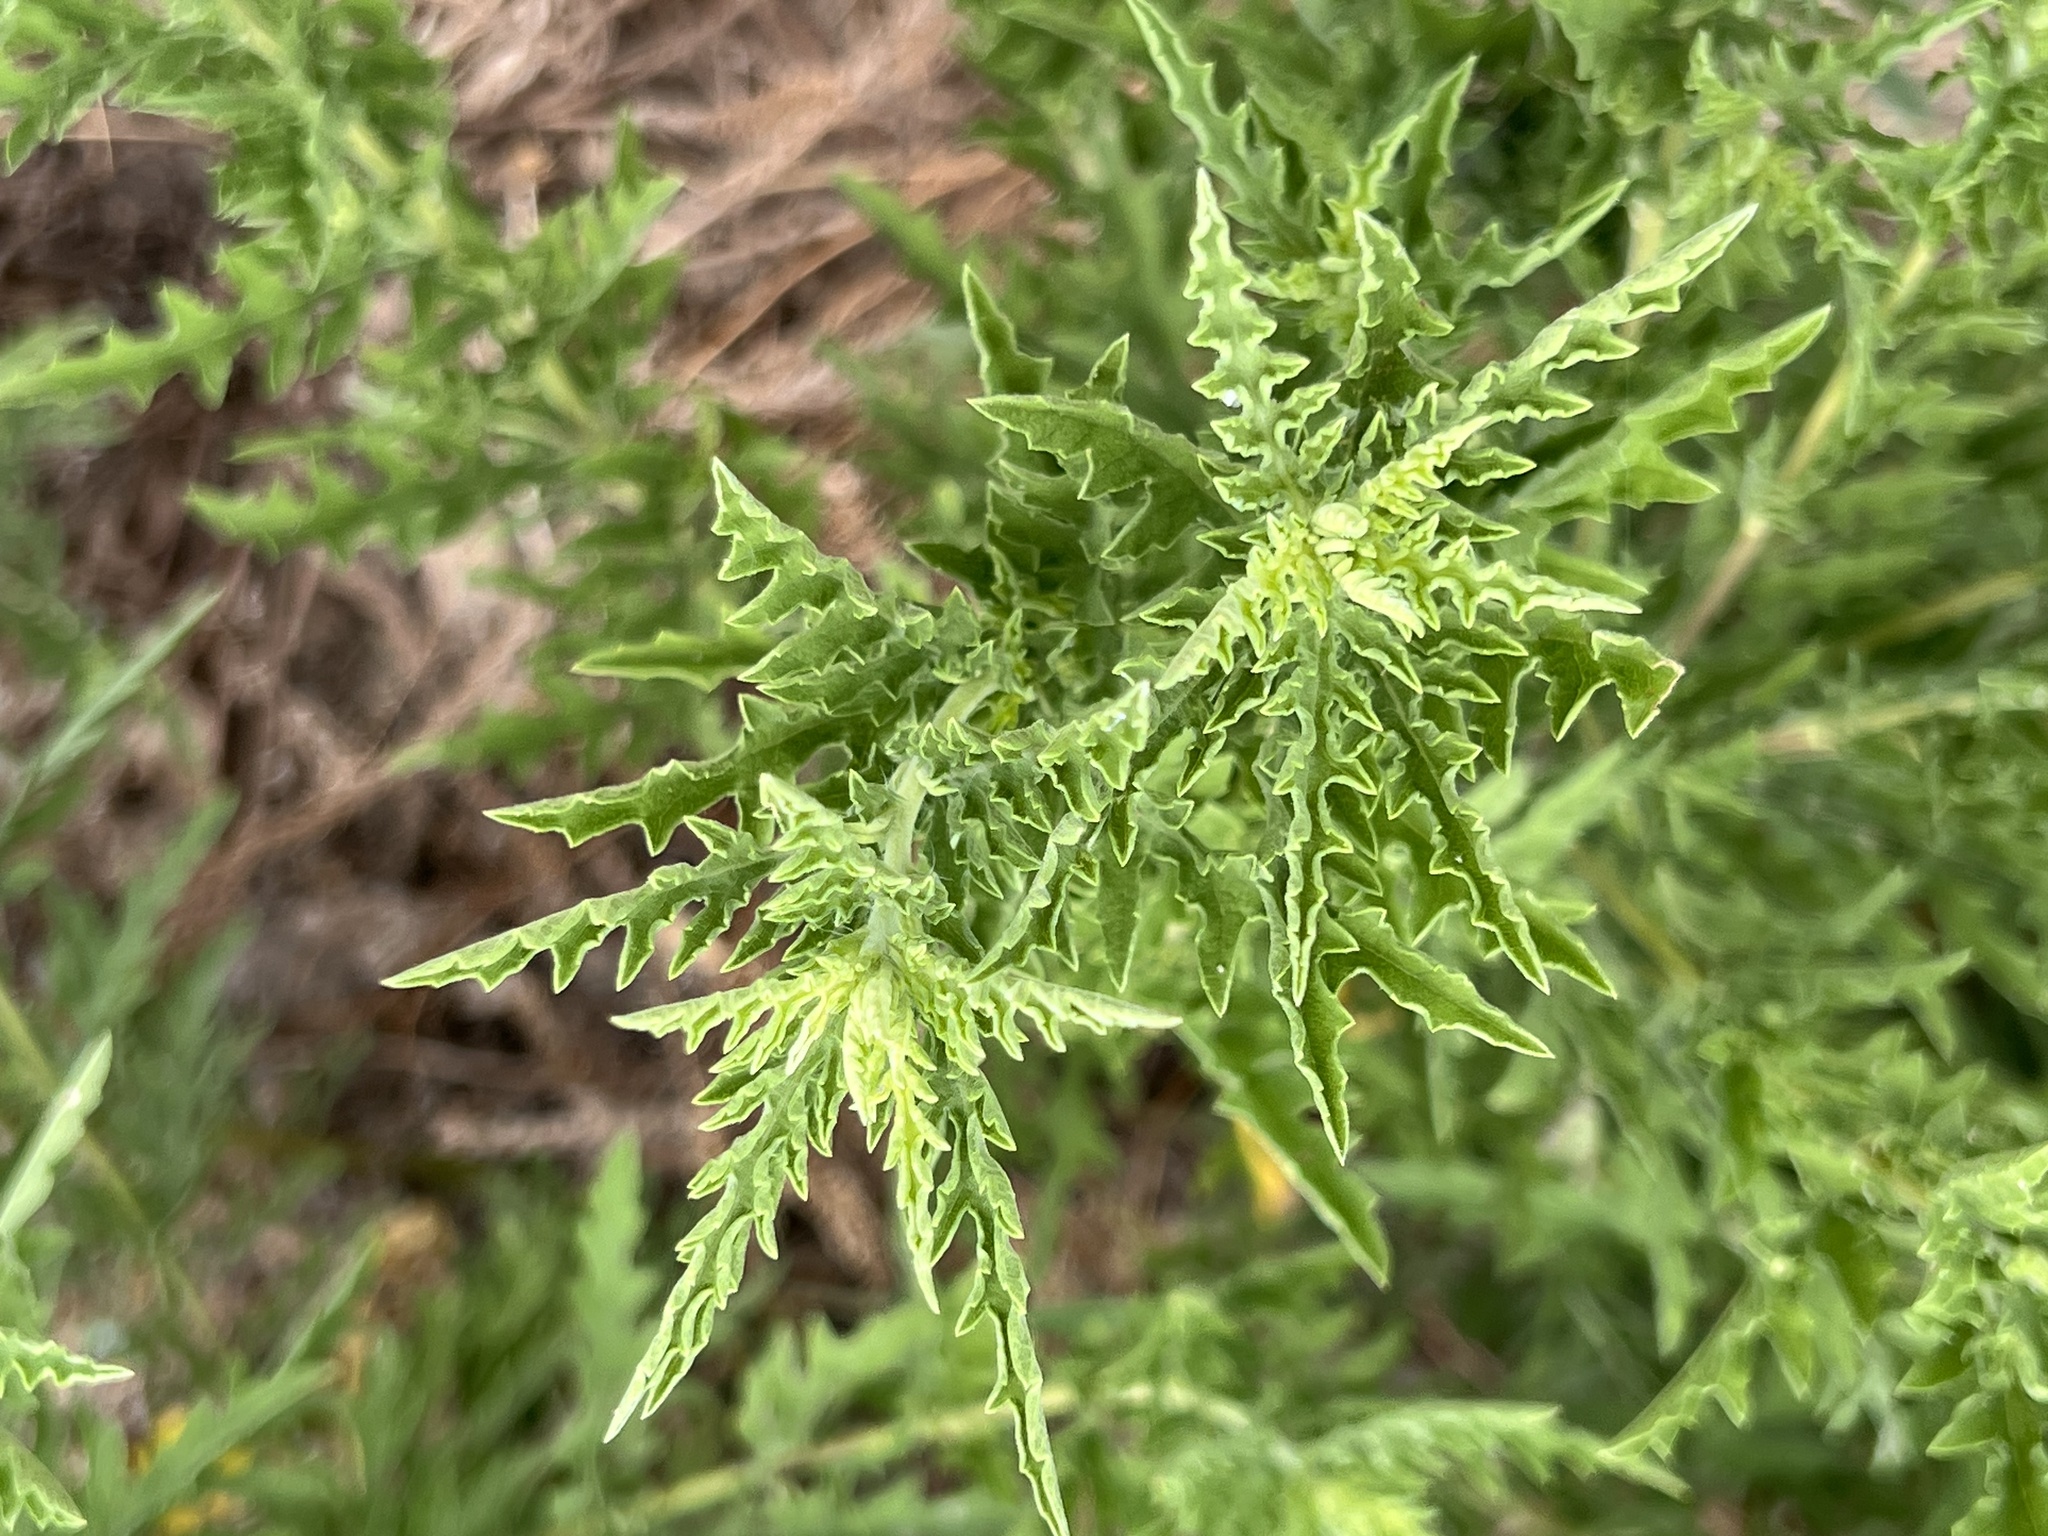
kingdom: Plantae
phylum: Tracheophyta
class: Magnoliopsida
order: Asterales
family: Asteraceae
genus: Ambrosia
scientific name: Ambrosia psilostachya
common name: Perennial ragweed
